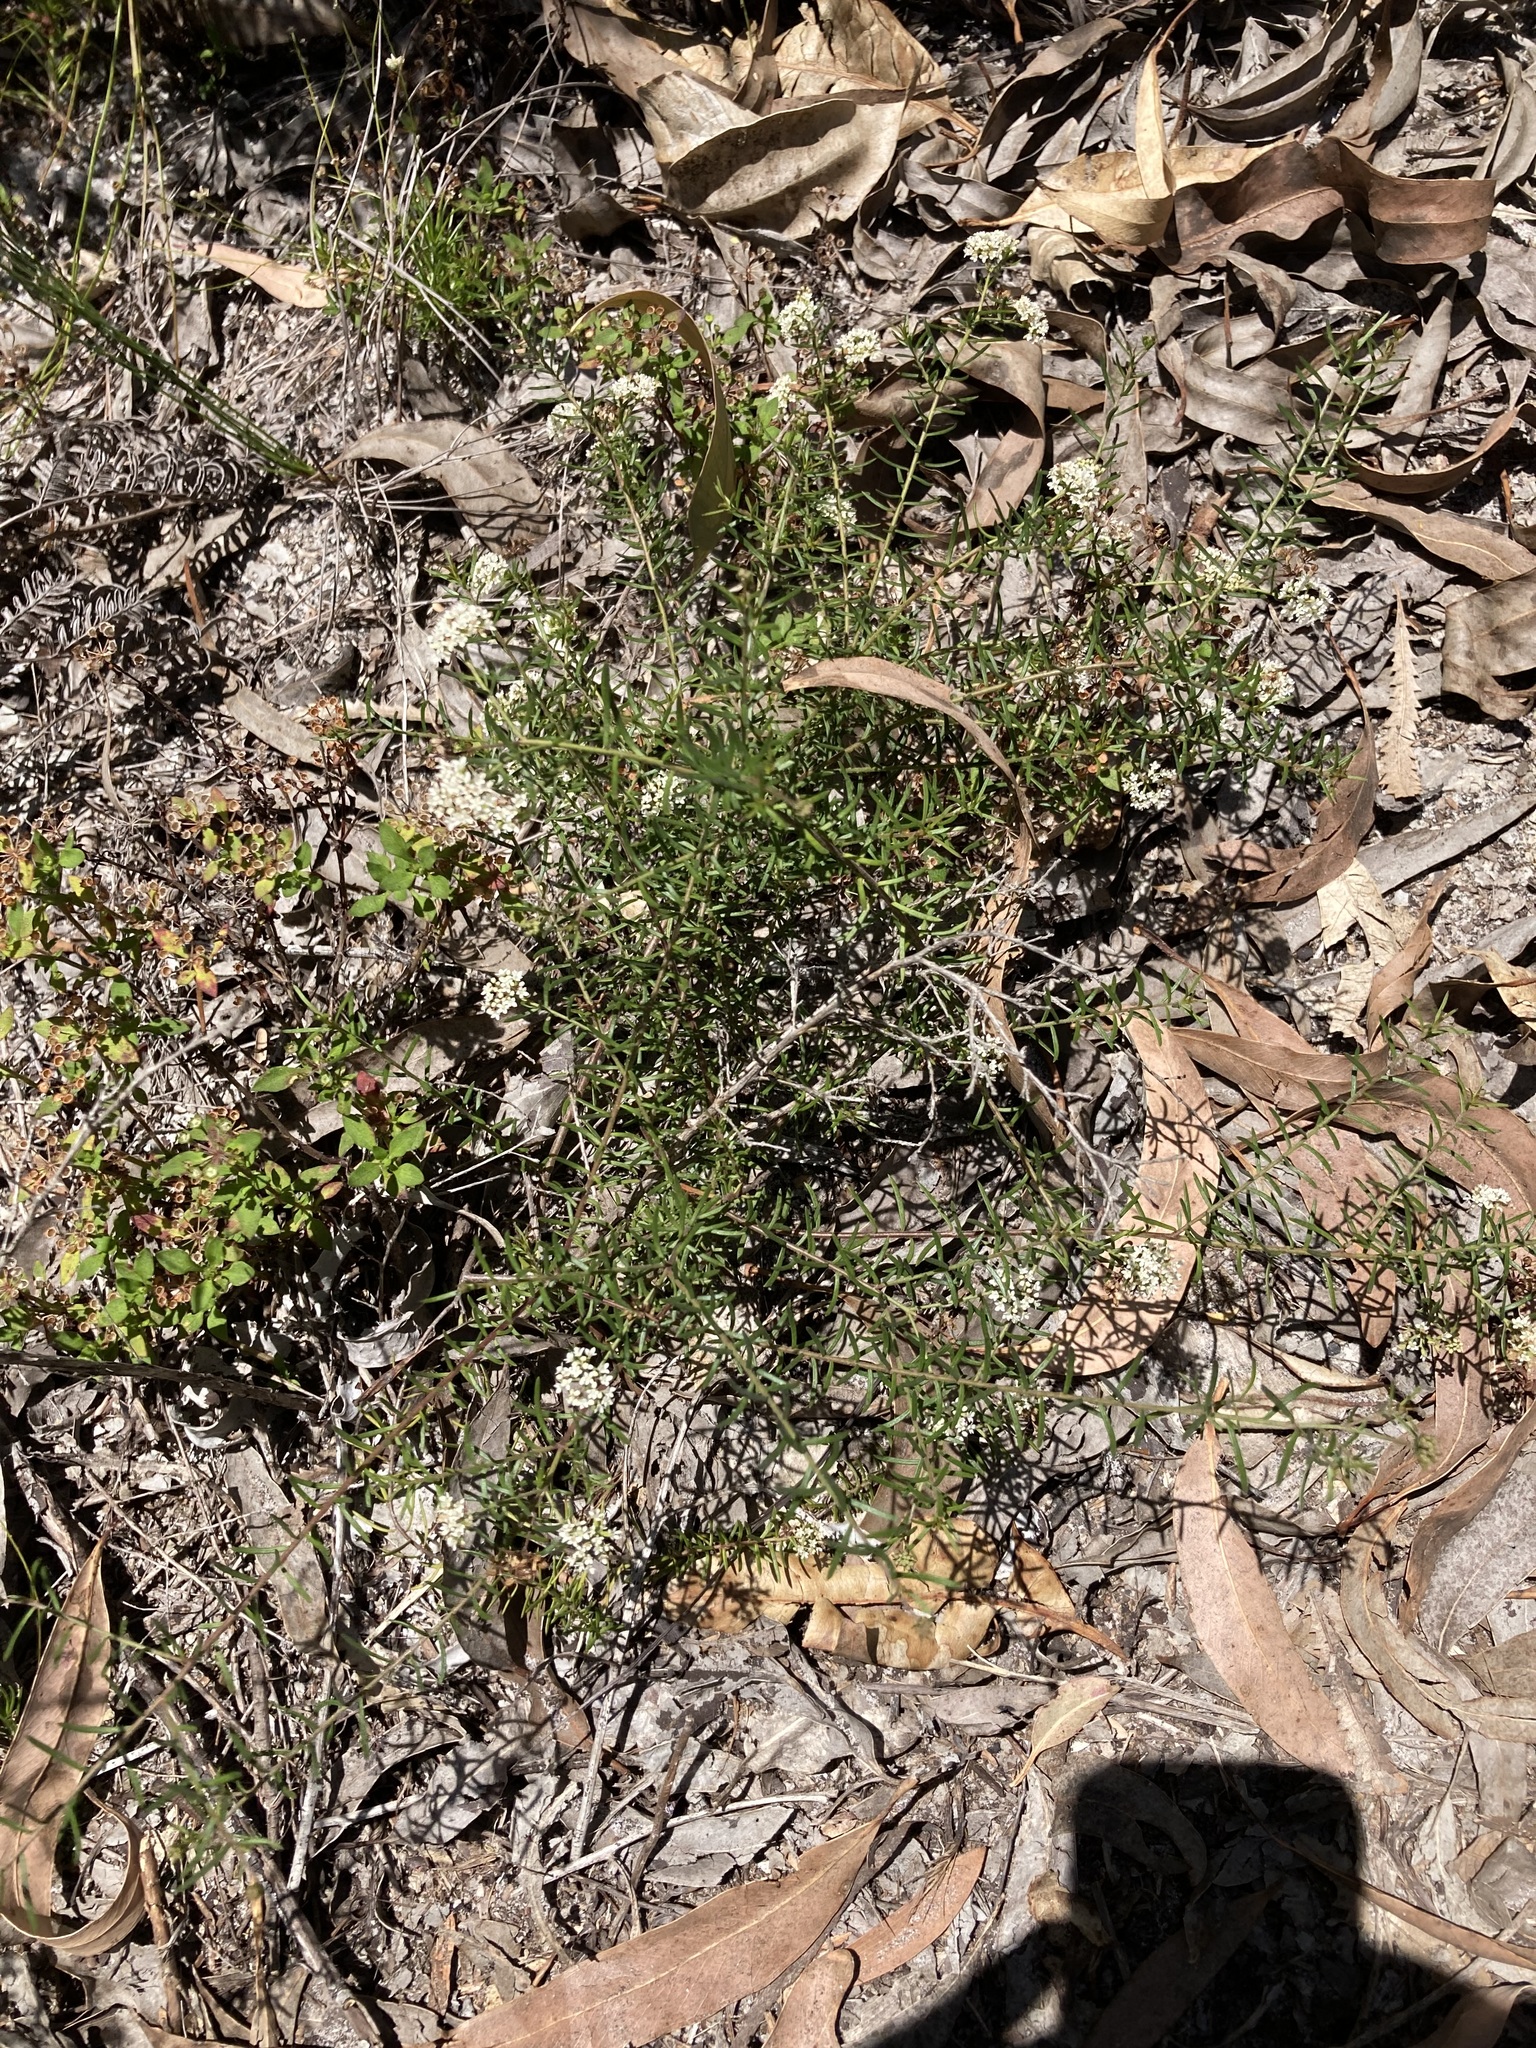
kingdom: Plantae
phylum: Tracheophyta
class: Magnoliopsida
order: Apiales
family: Apiaceae
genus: Platysace
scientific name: Platysace ericoides
